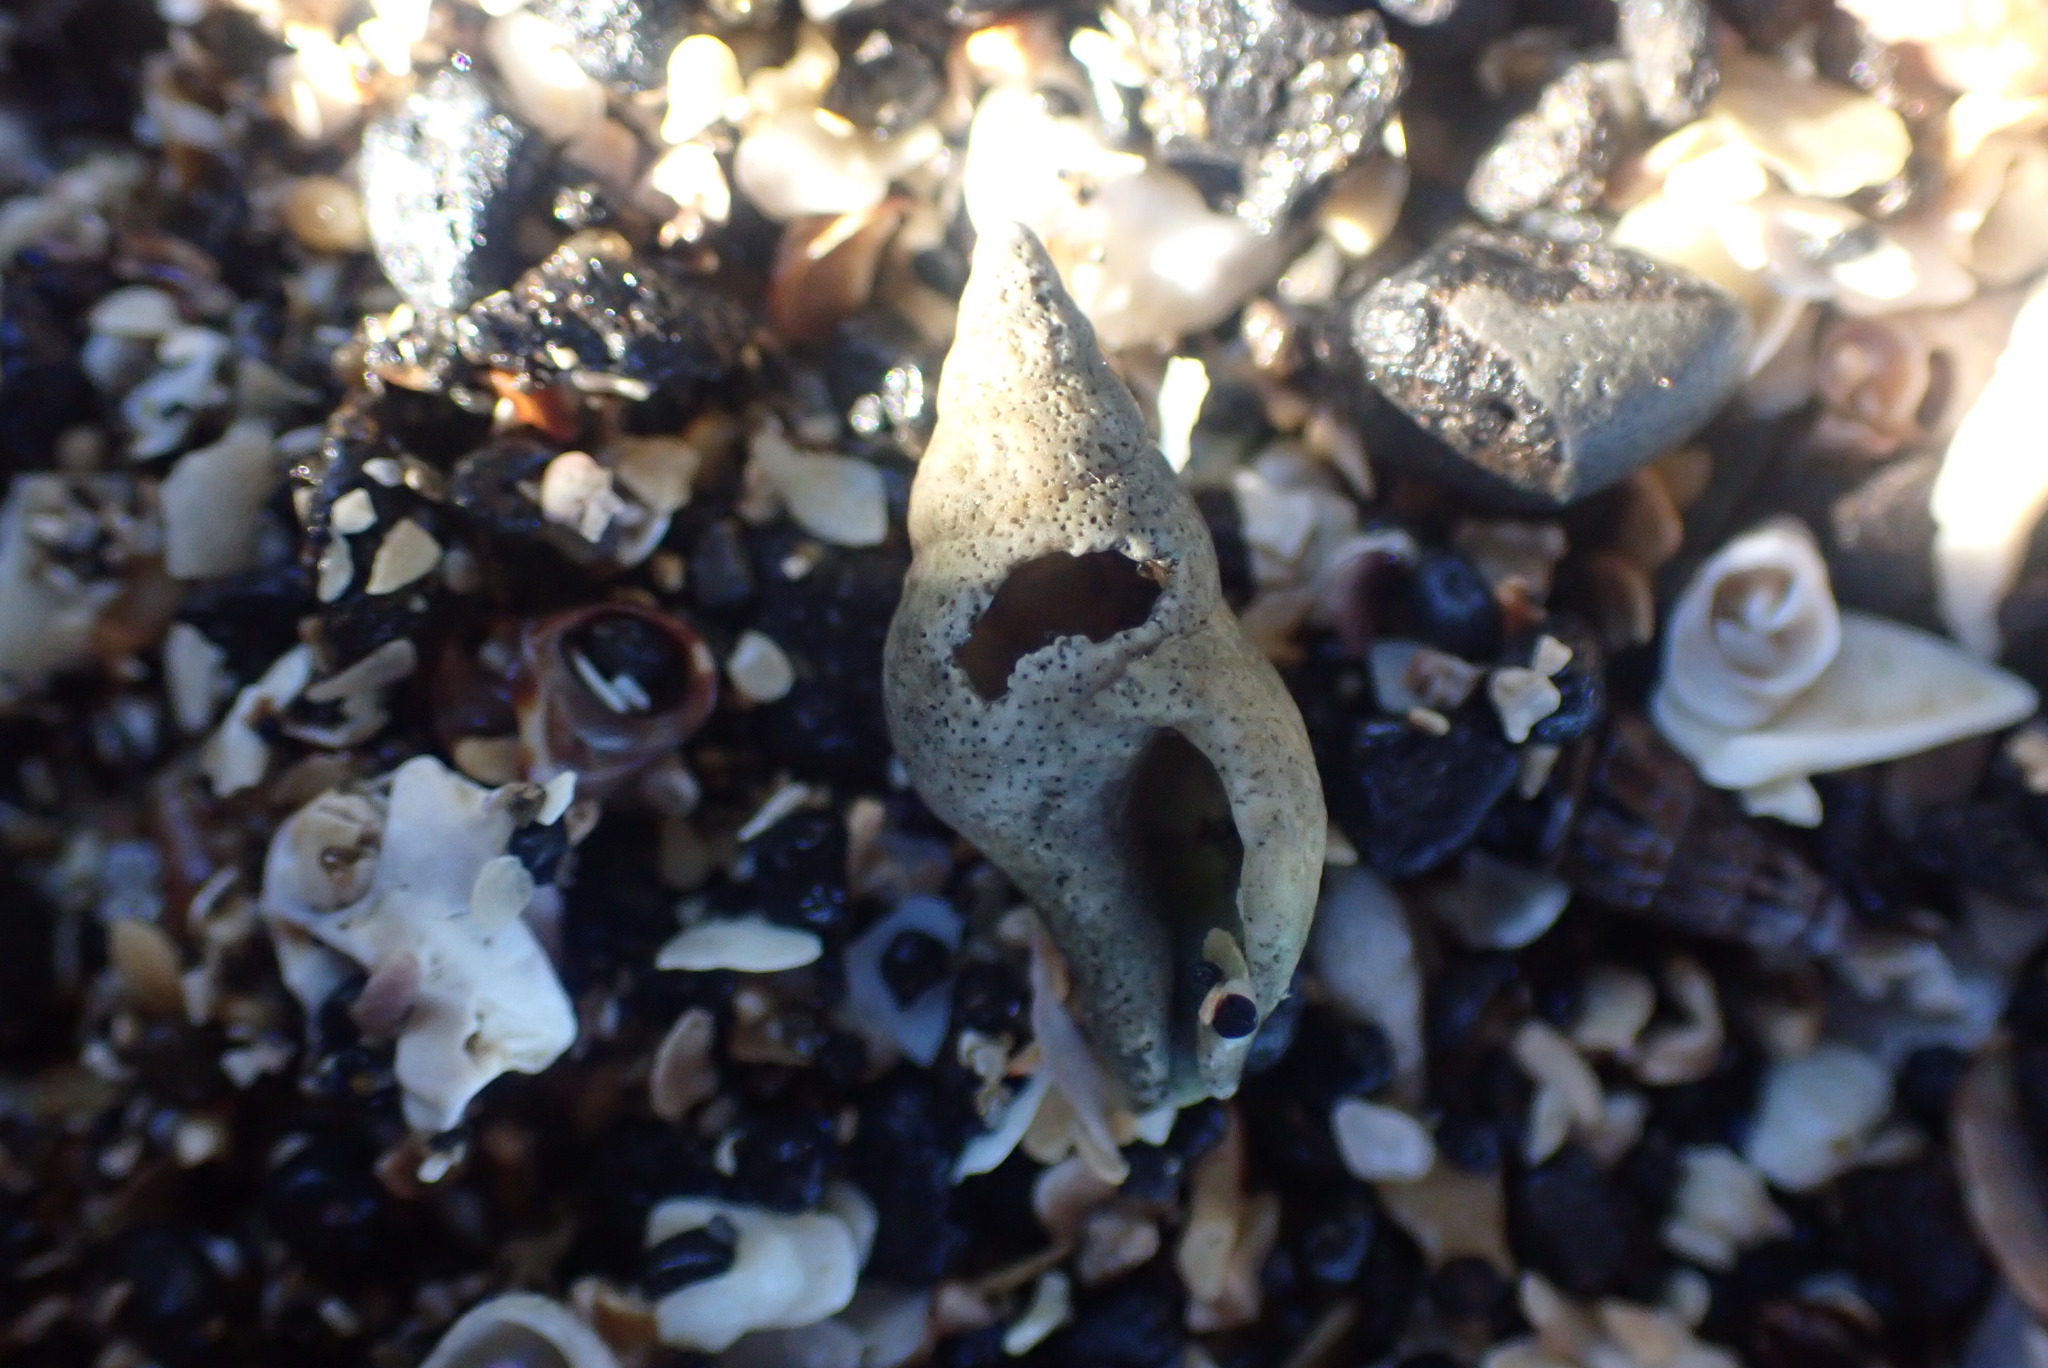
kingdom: Animalia
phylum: Mollusca
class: Gastropoda
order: Neogastropoda
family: Tudiclidae
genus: Buccinulum
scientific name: Buccinulum vittatum
